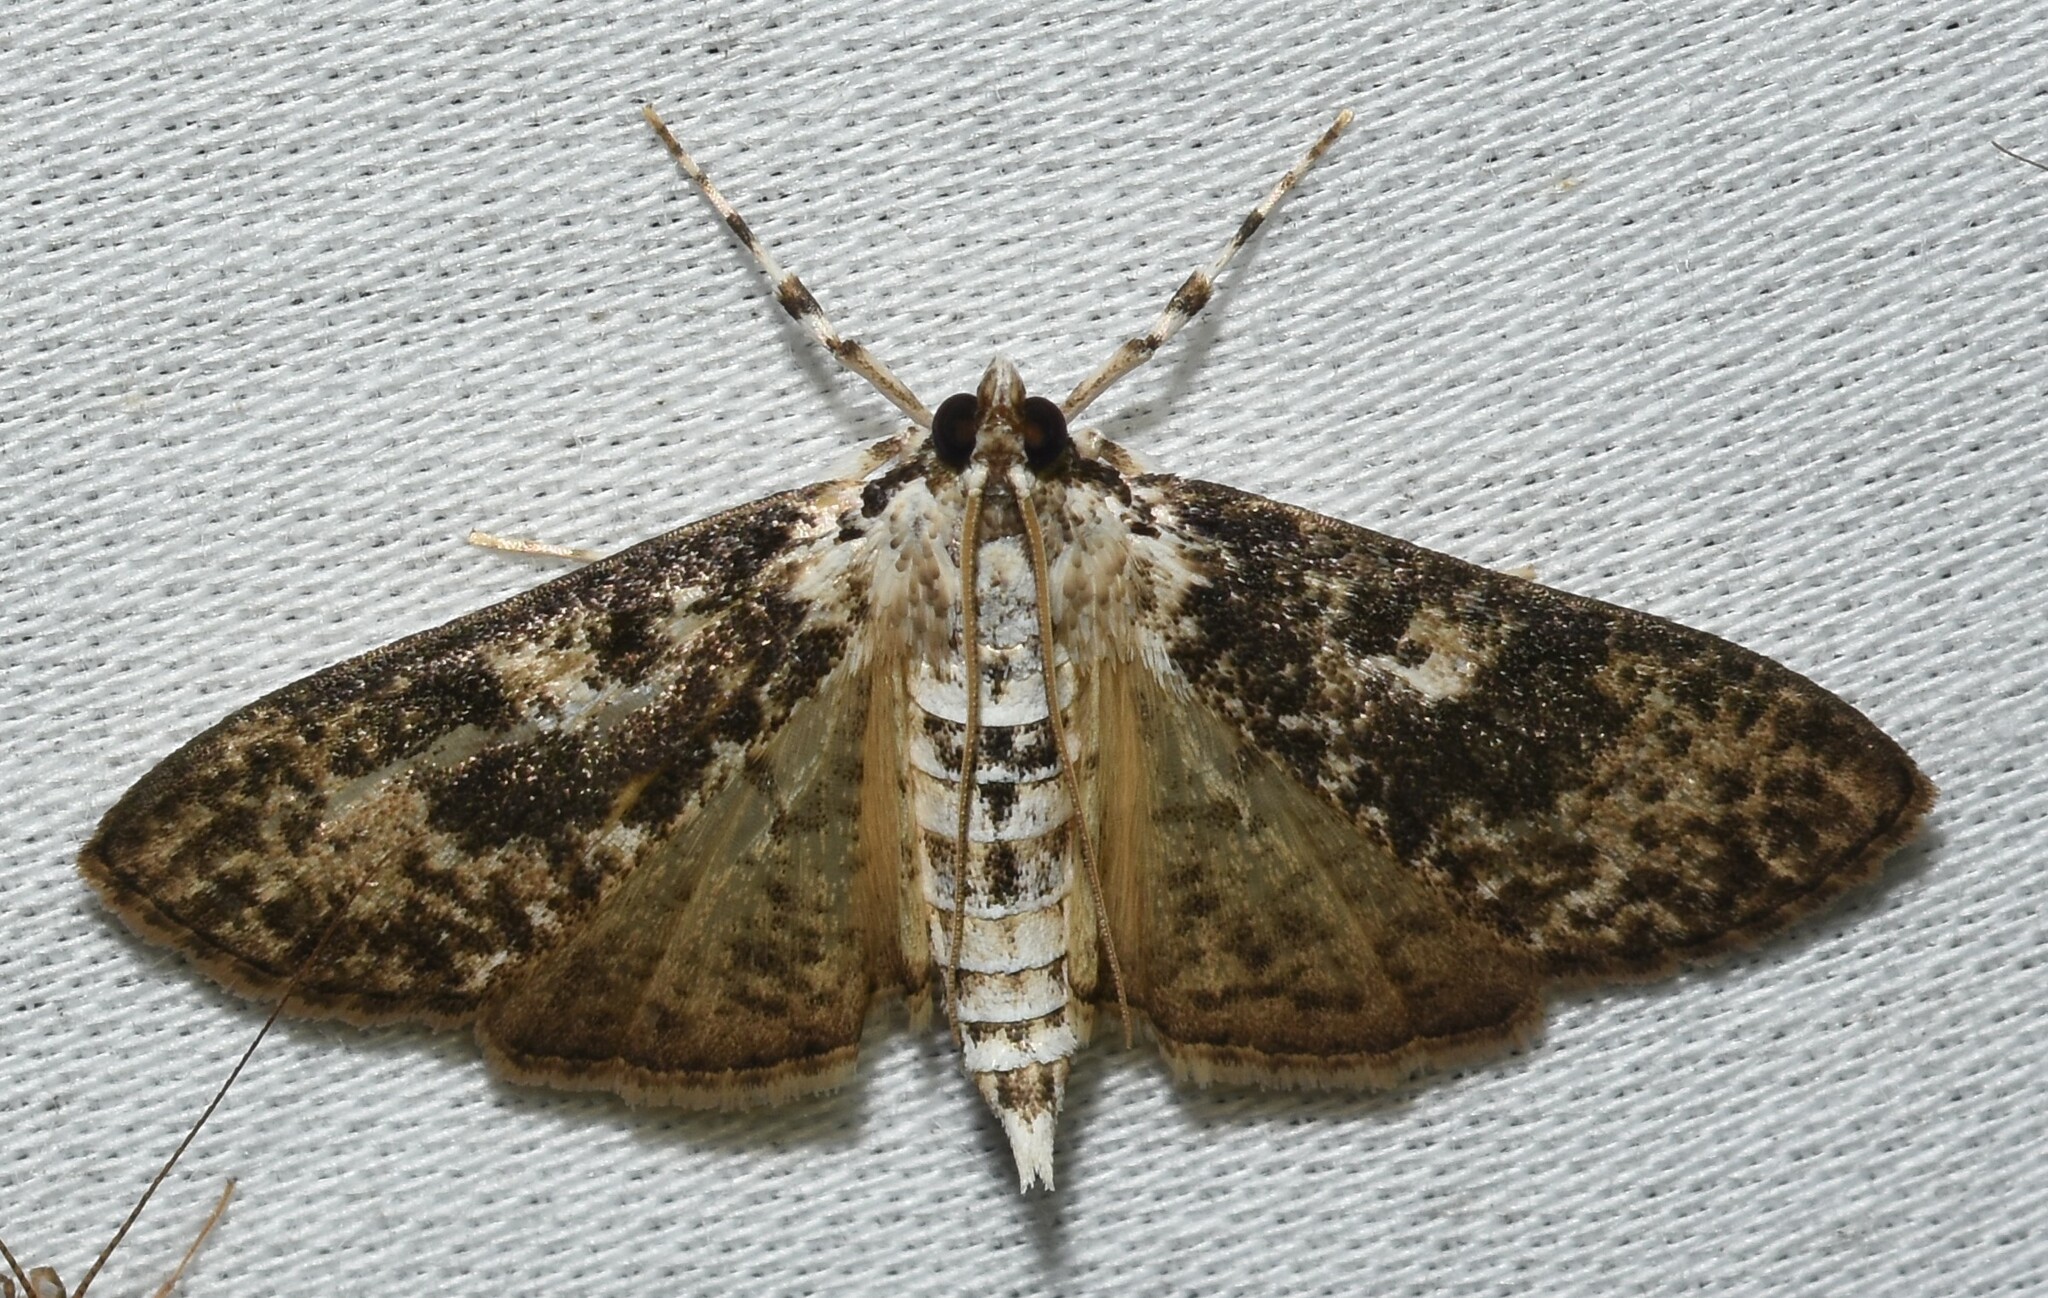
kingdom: Animalia
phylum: Arthropoda
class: Insecta
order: Lepidoptera
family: Crambidae
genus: Palpita
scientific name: Palpita magniferalis
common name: Splendid palpita moth
